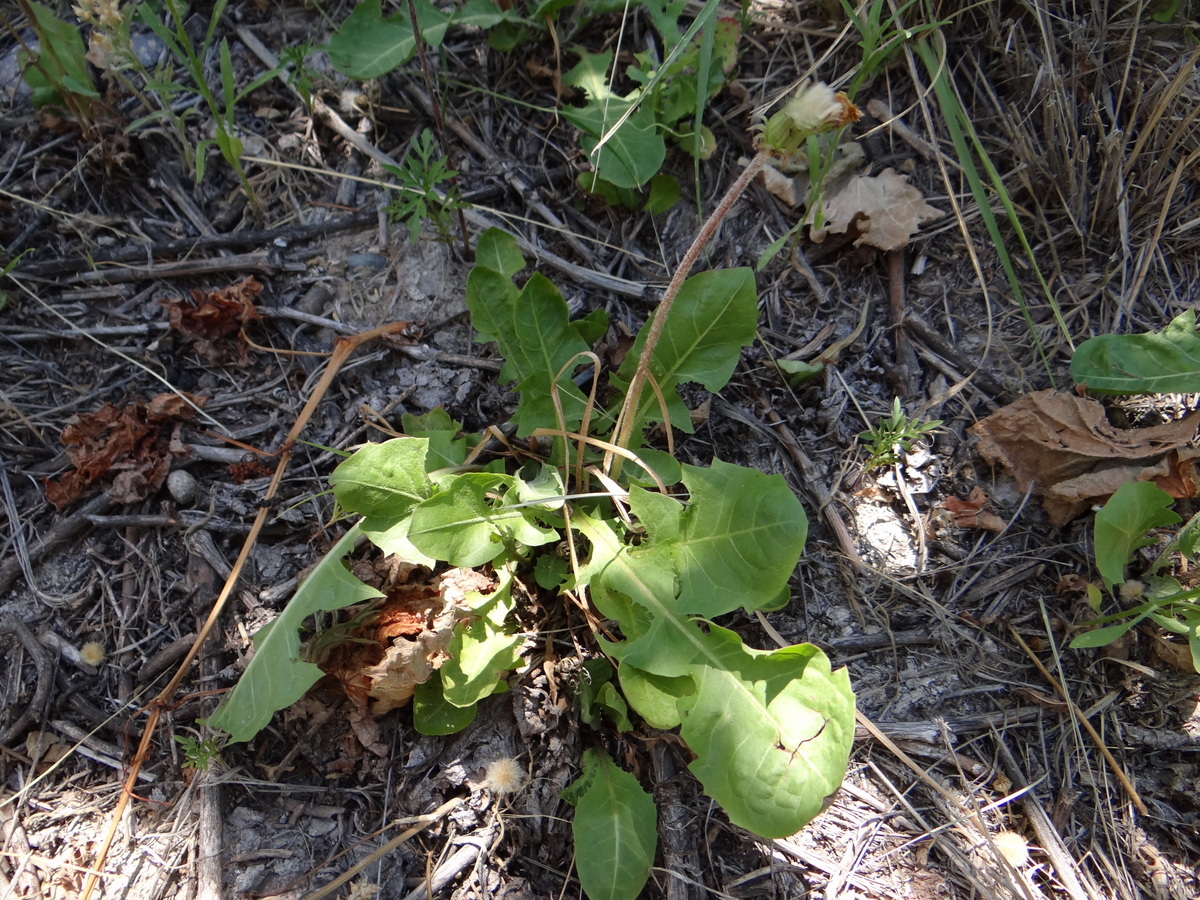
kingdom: Plantae
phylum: Tracheophyta
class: Magnoliopsida
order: Asterales
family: Asteraceae
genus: Taraxacum
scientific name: Taraxacum officinale
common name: Common dandelion
